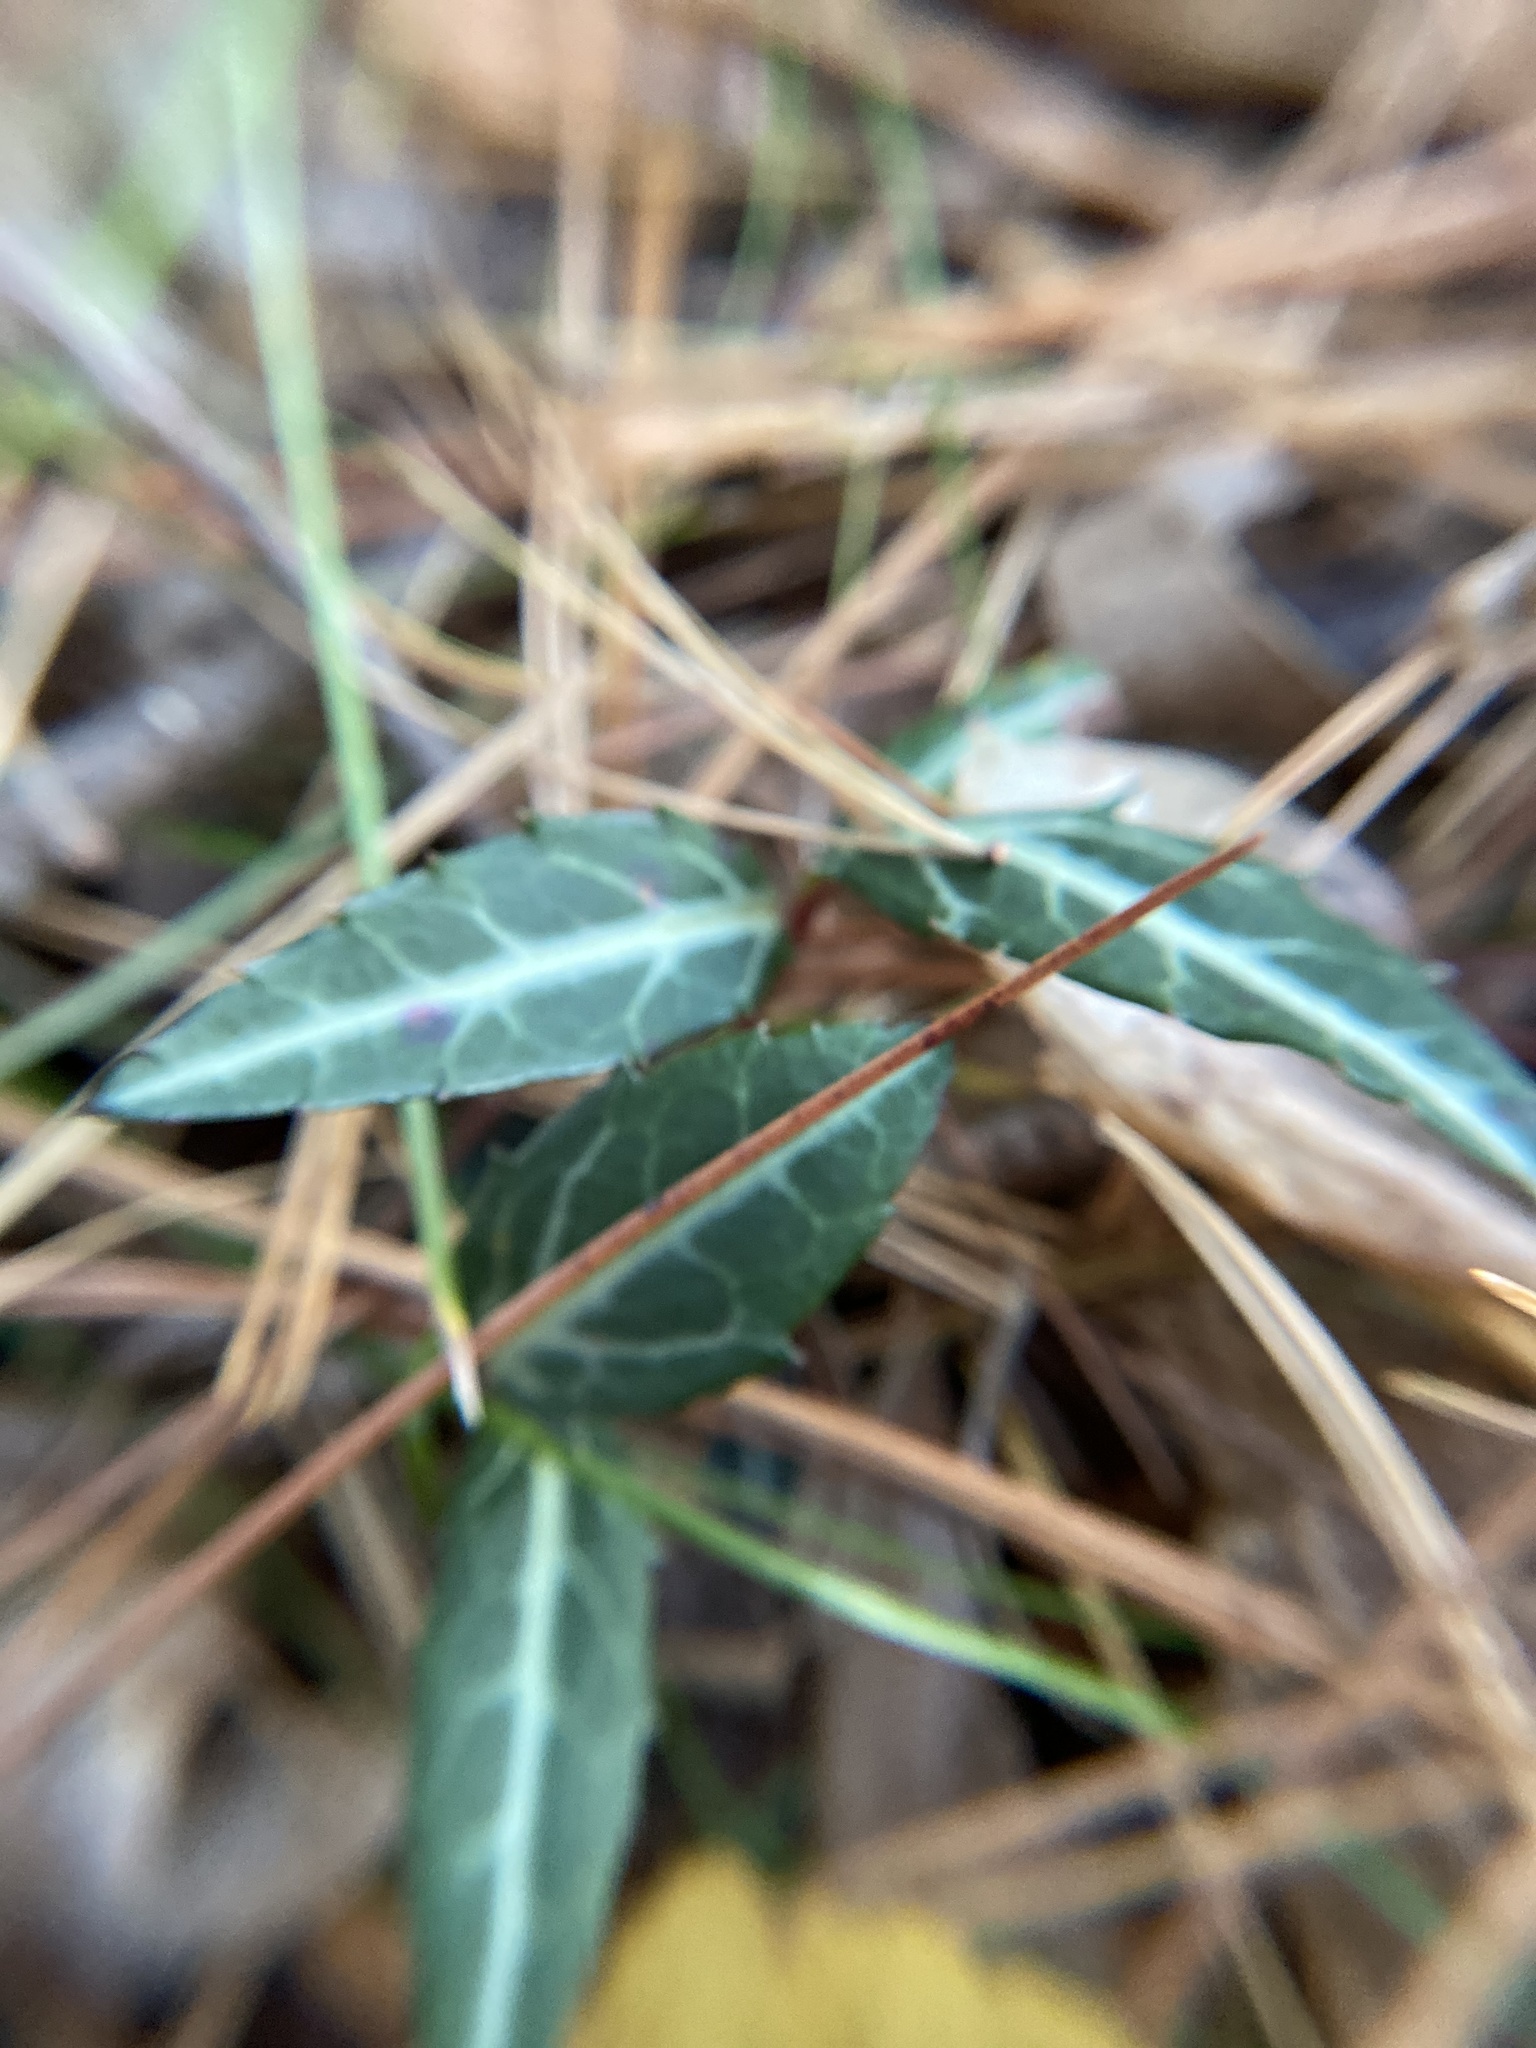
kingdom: Plantae
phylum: Tracheophyta
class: Magnoliopsida
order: Ericales
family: Ericaceae
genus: Chimaphila
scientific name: Chimaphila maculata
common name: Spotted pipsissewa
